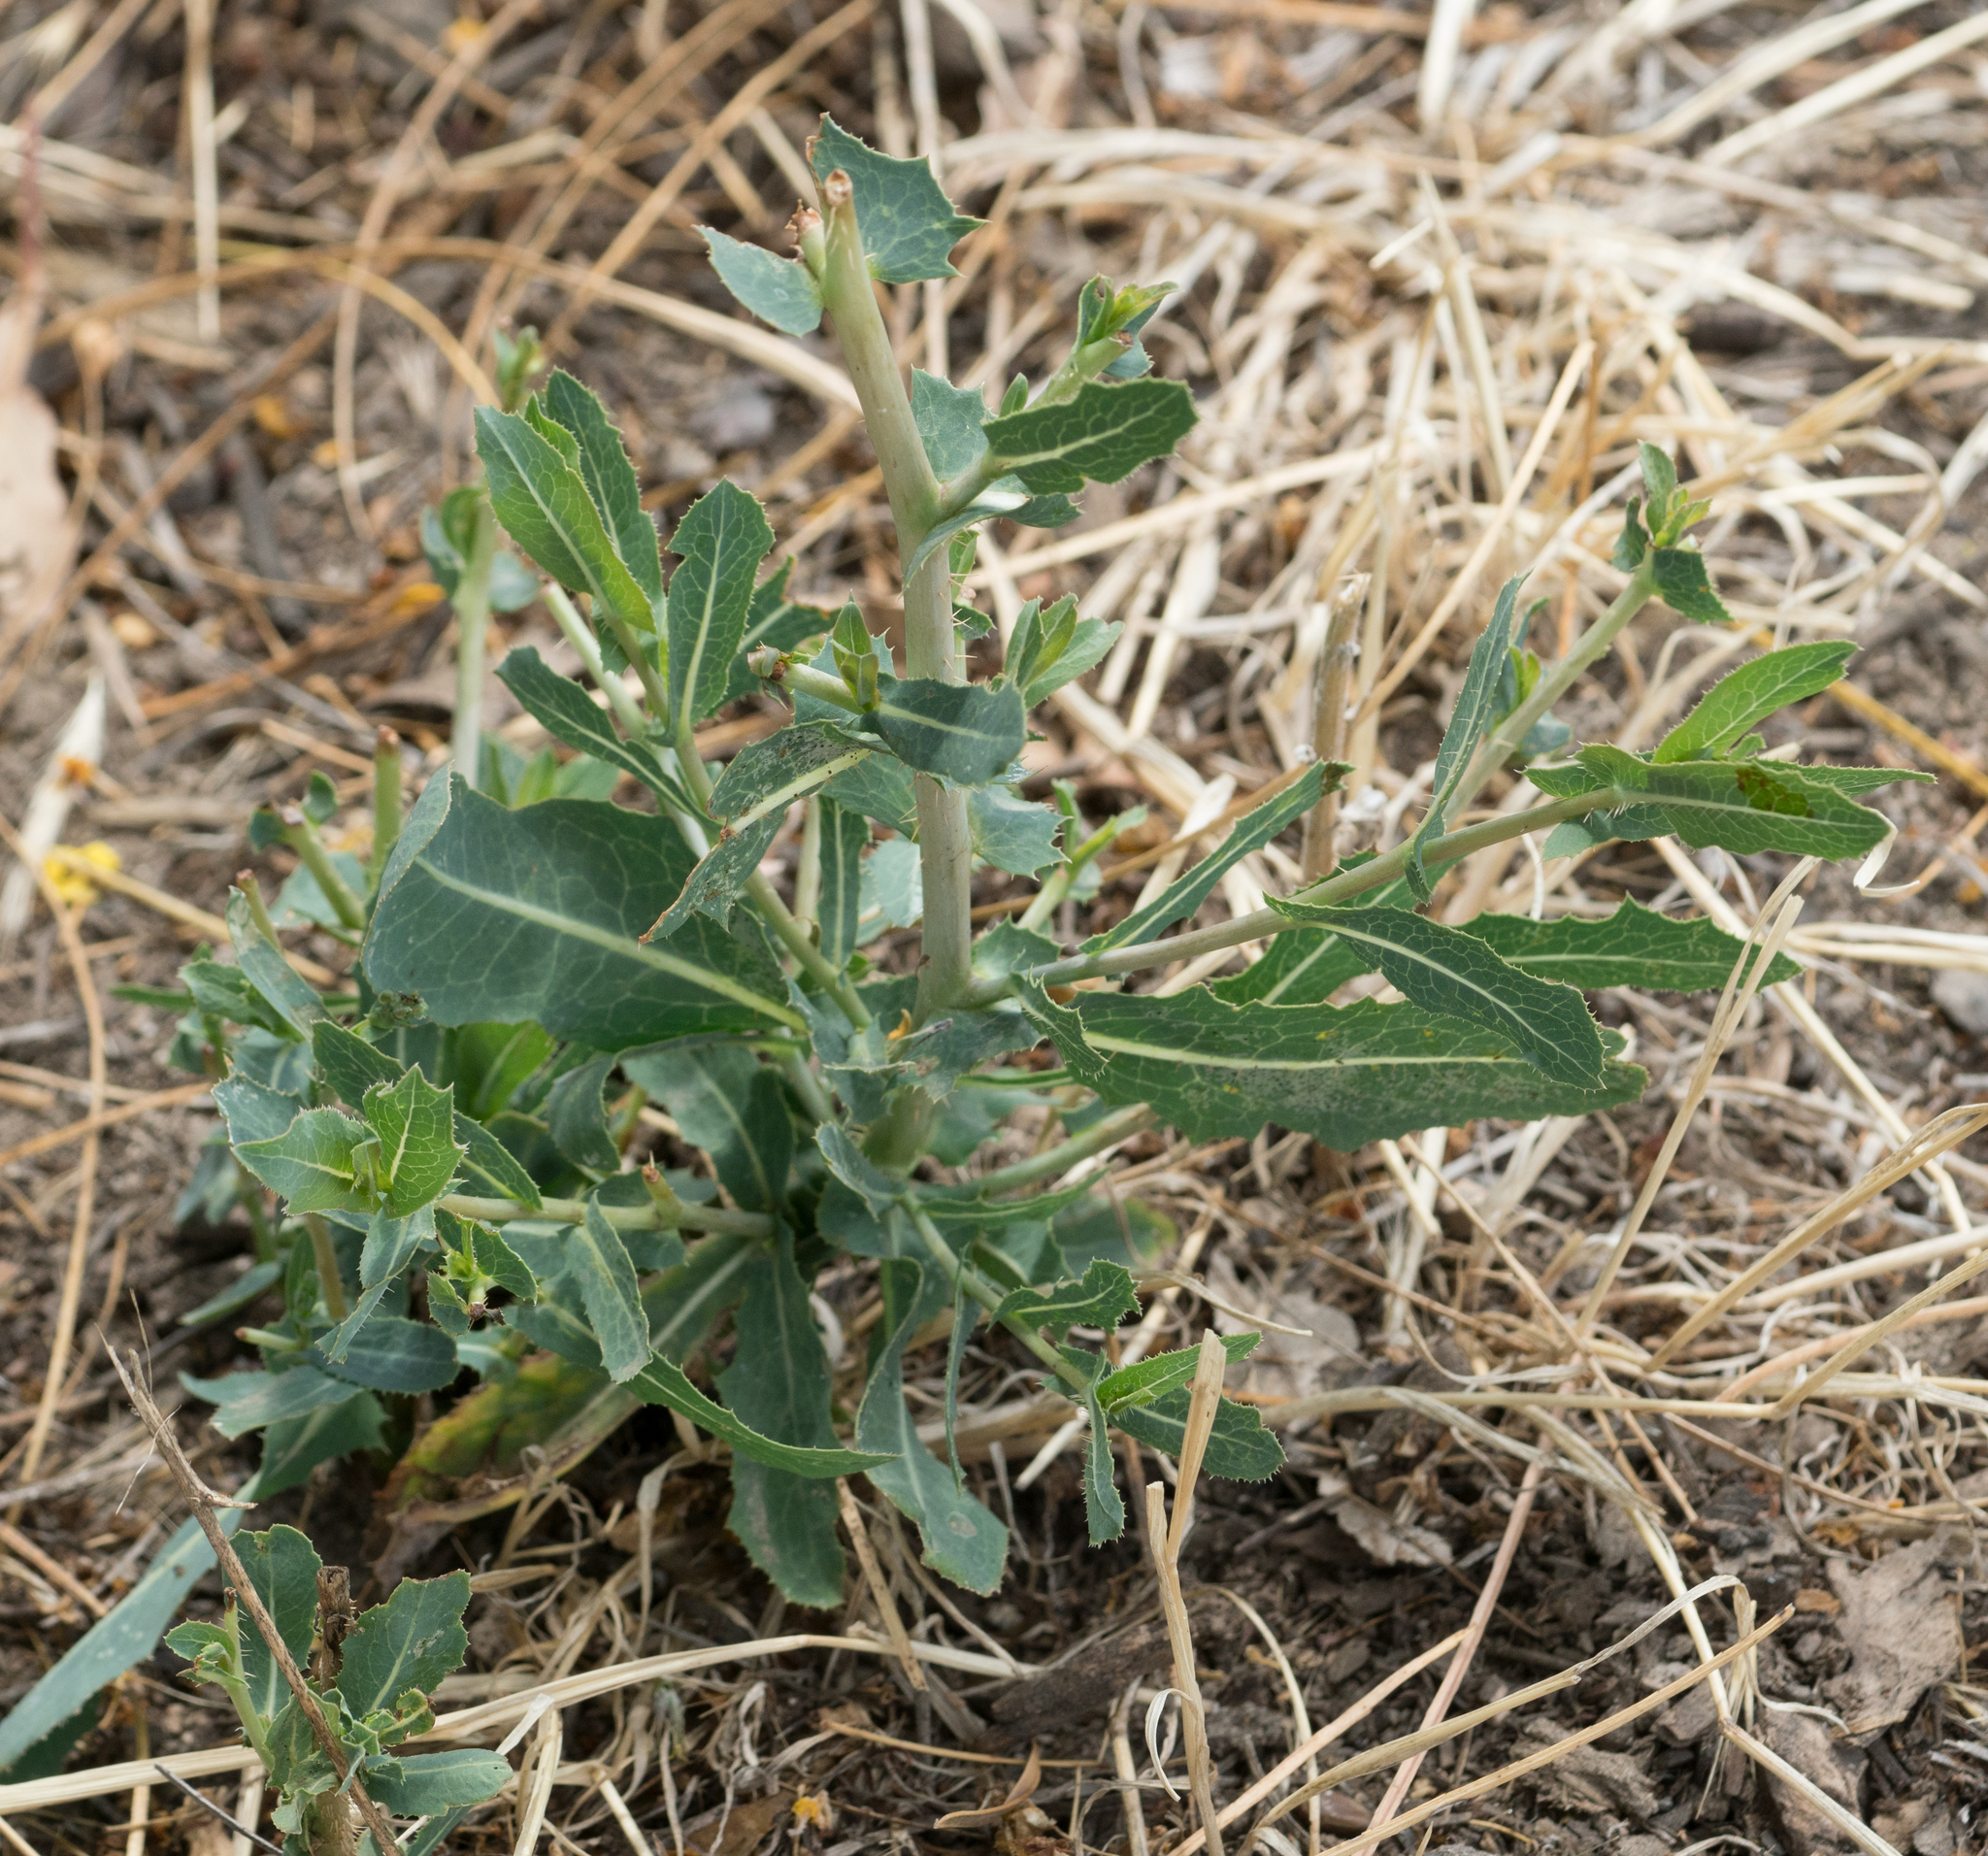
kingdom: Plantae
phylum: Tracheophyta
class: Magnoliopsida
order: Asterales
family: Asteraceae
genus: Lactuca
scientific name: Lactuca serriola
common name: Prickly lettuce
